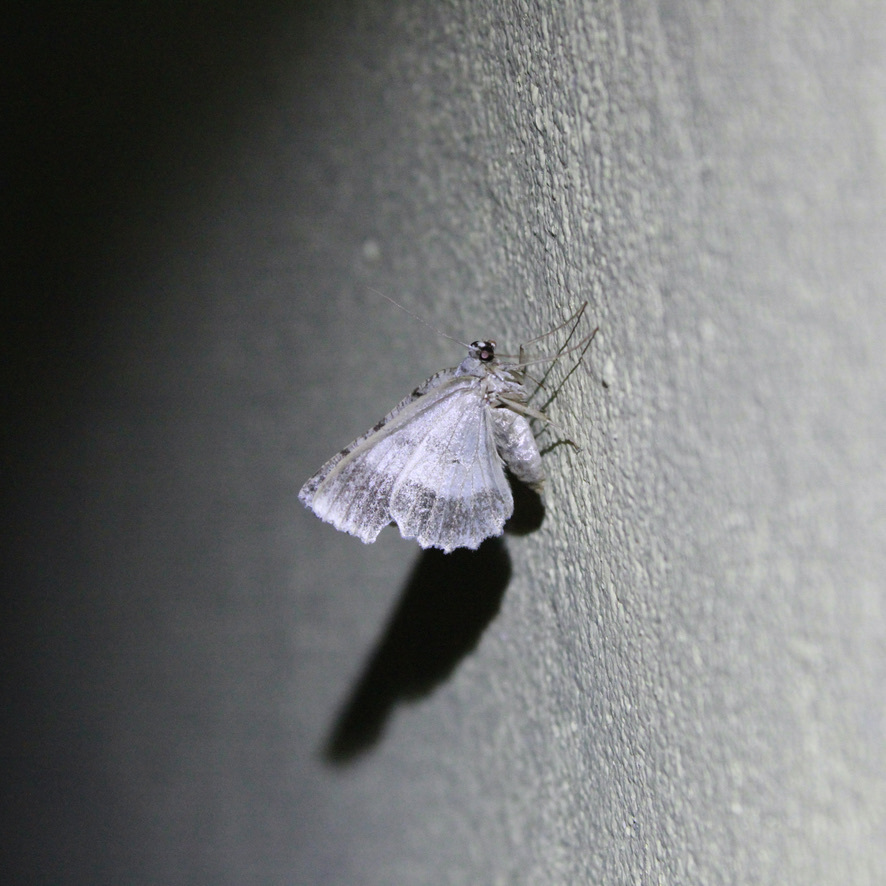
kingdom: Animalia
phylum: Arthropoda
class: Insecta
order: Lepidoptera
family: Geometridae
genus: Bryoptera
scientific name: Bryoptera hypomelas
